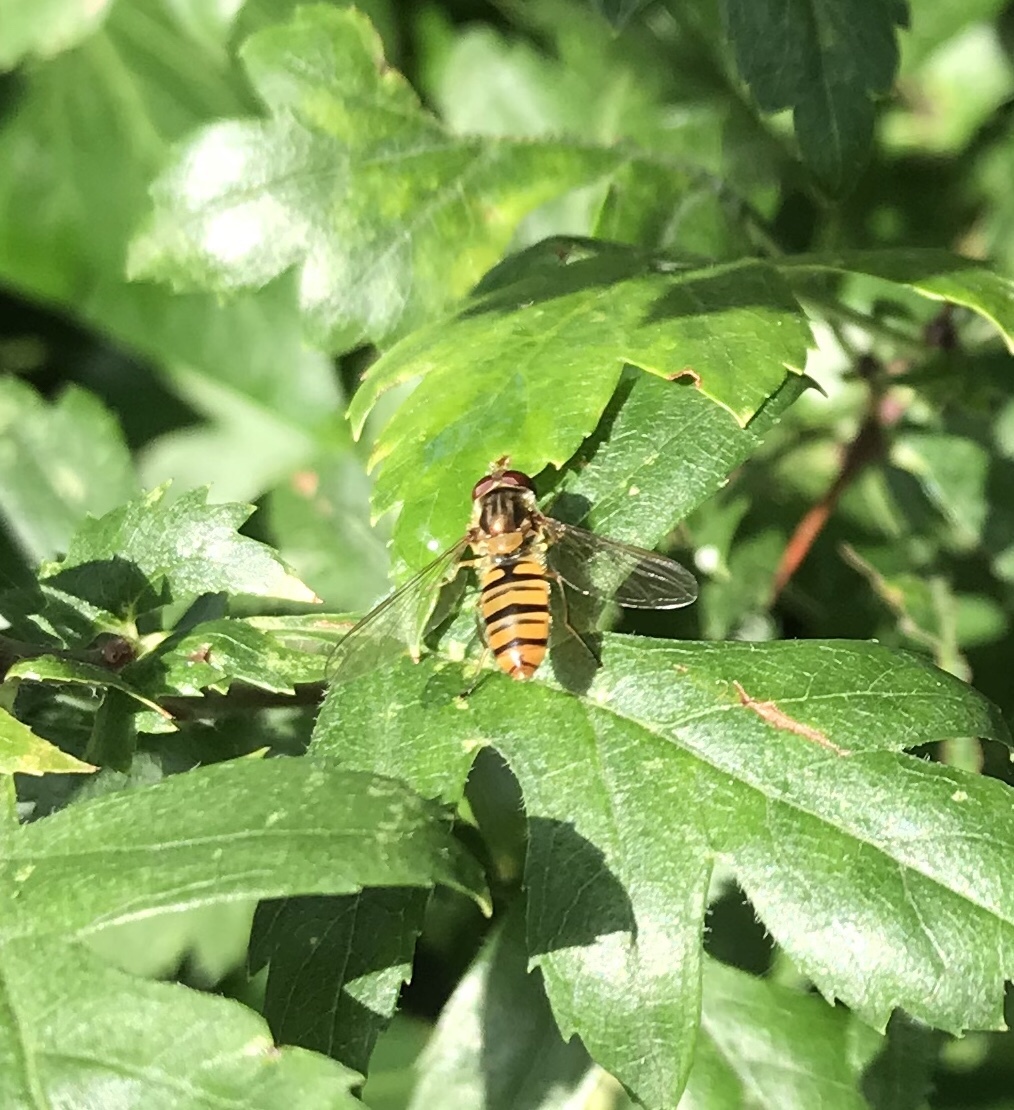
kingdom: Animalia
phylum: Arthropoda
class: Insecta
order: Diptera
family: Syrphidae
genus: Episyrphus
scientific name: Episyrphus balteatus
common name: Marmalade hoverfly
